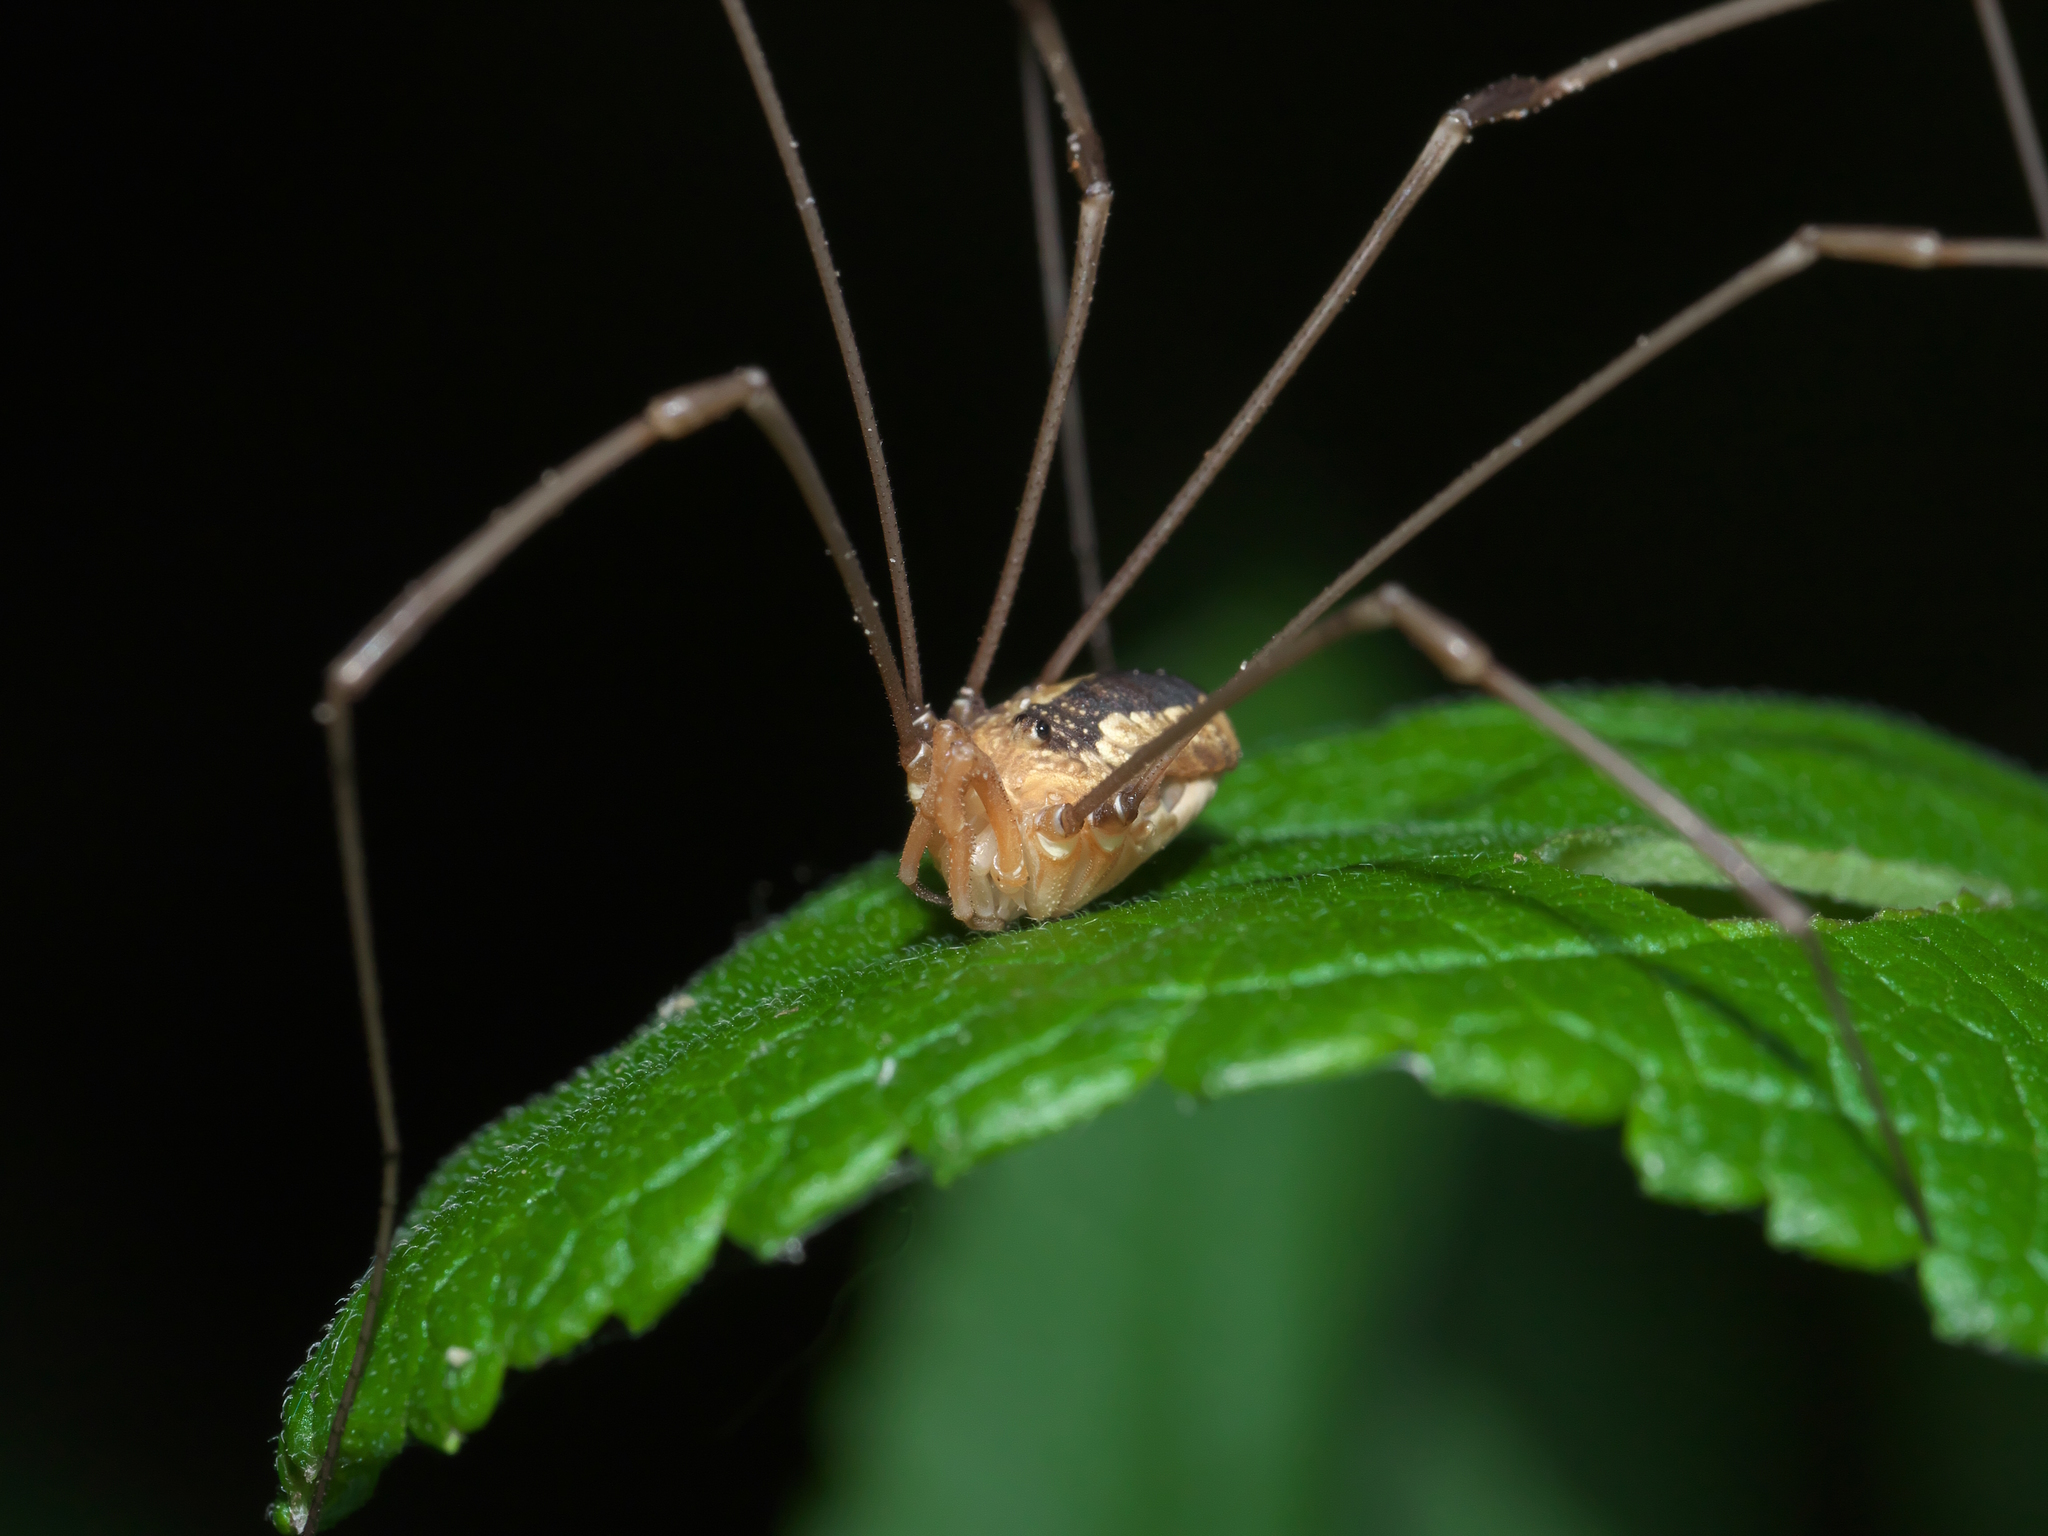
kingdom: Animalia
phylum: Arthropoda
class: Arachnida
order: Opiliones
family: Sclerosomatidae
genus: Leiobunum
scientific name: Leiobunum vittatum
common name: Eastern harvestman
